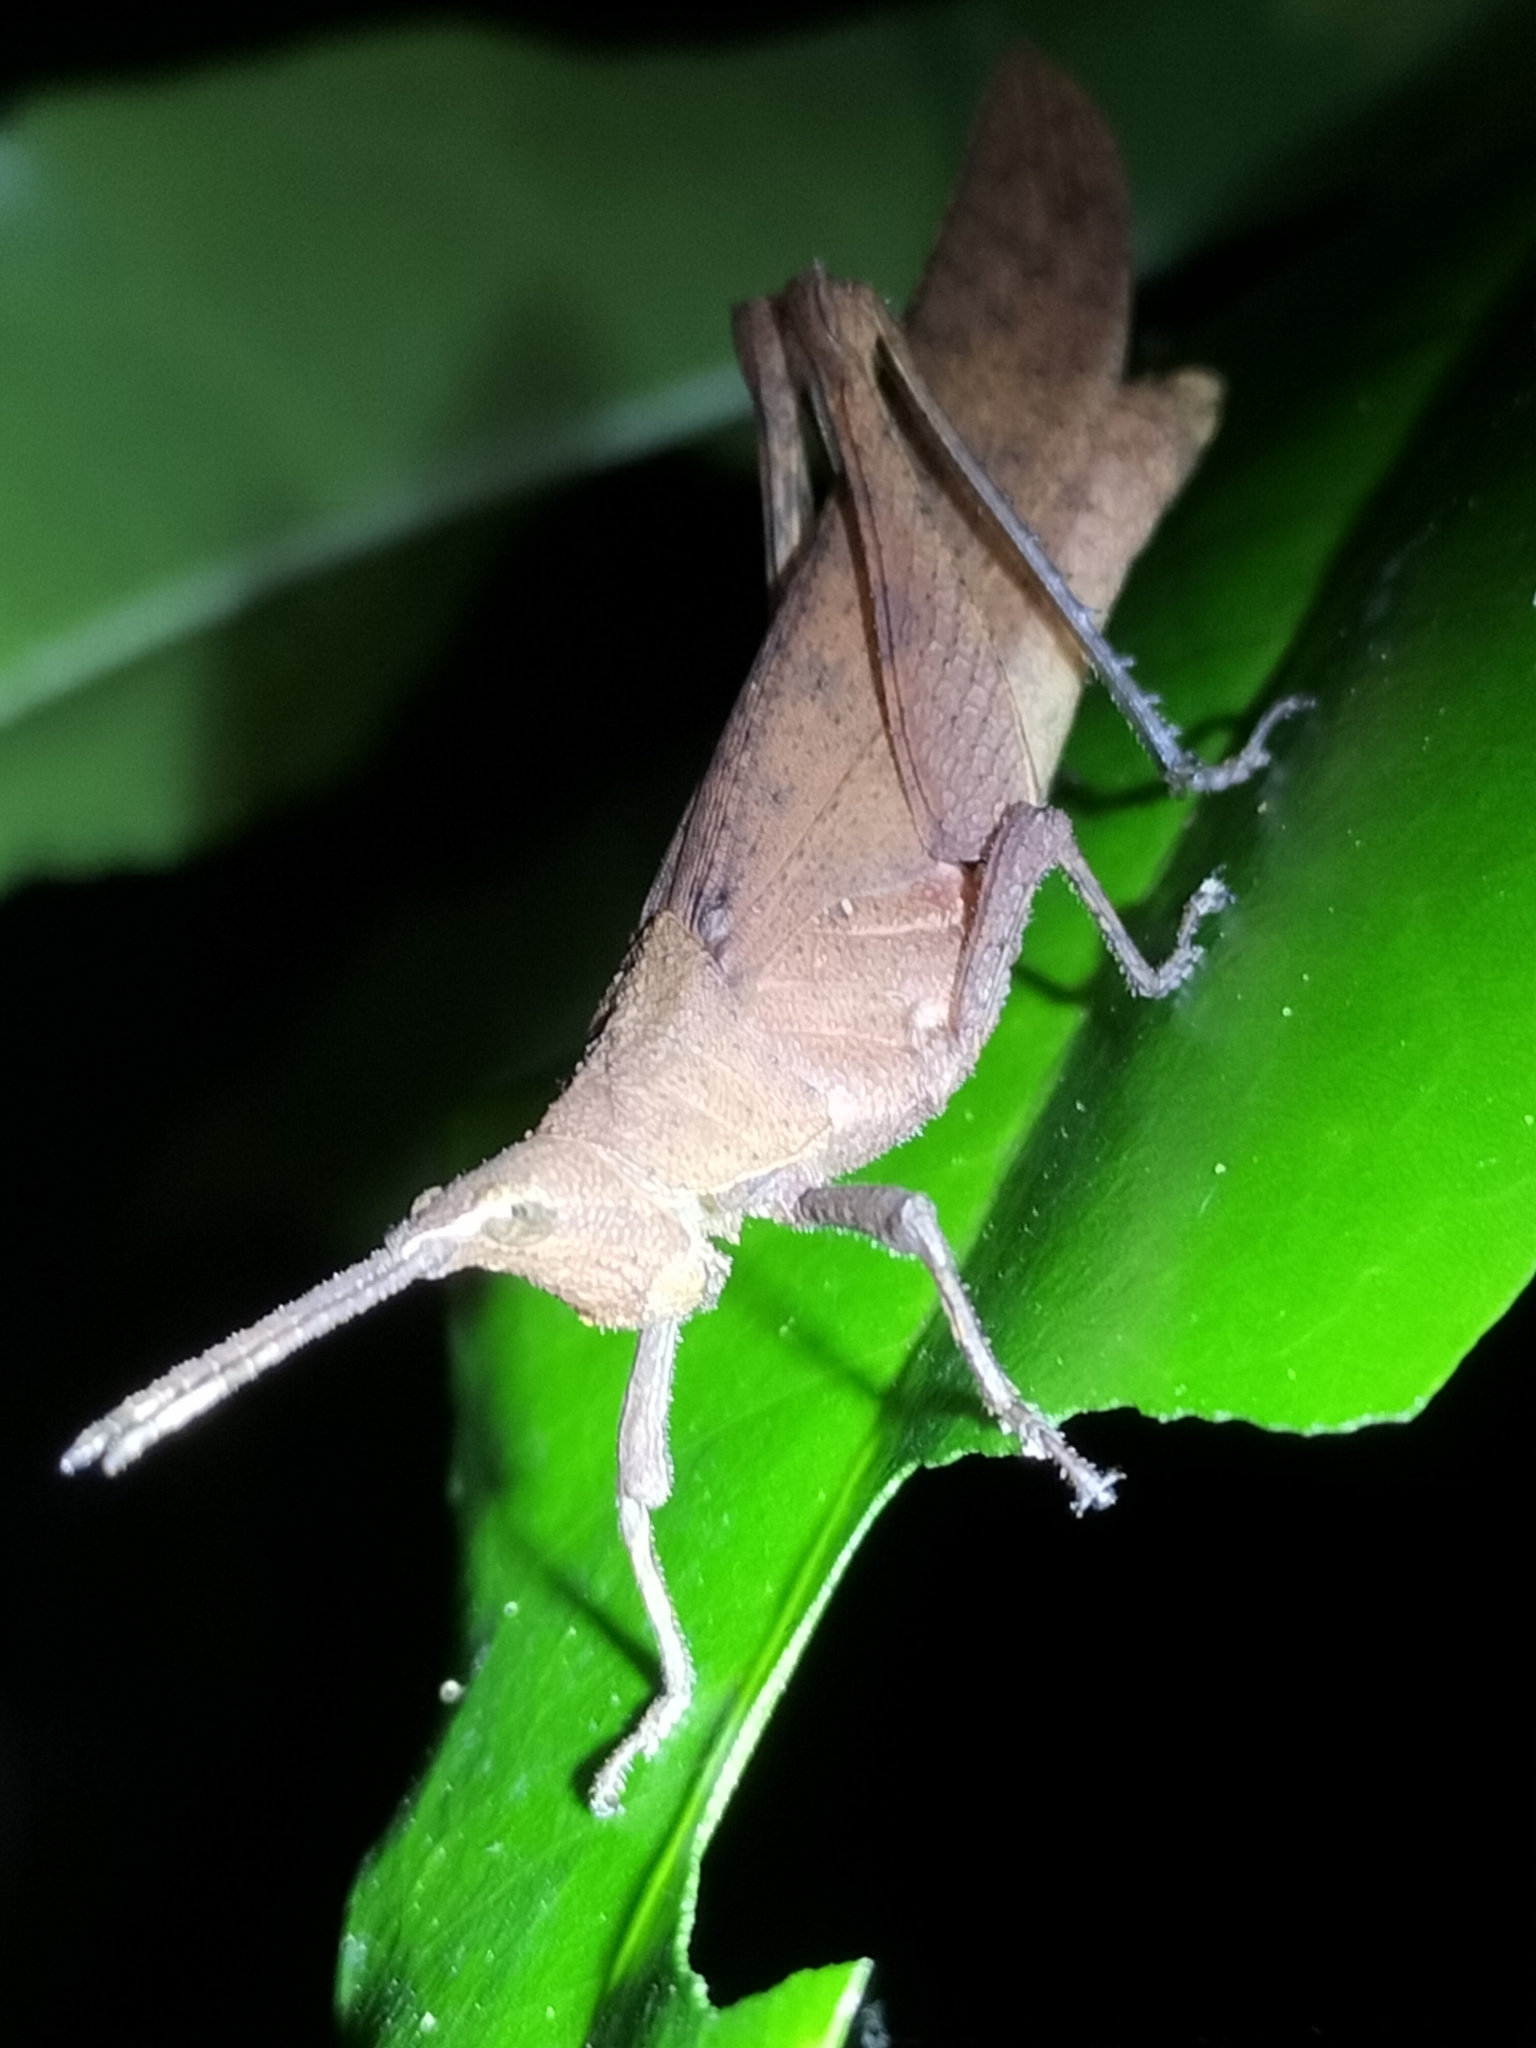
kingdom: Animalia
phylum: Arthropoda
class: Insecta
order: Orthoptera
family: Pyrgomorphidae
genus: Desmoptera
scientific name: Desmoptera truncatipennis
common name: Large forest pyrgomorph
